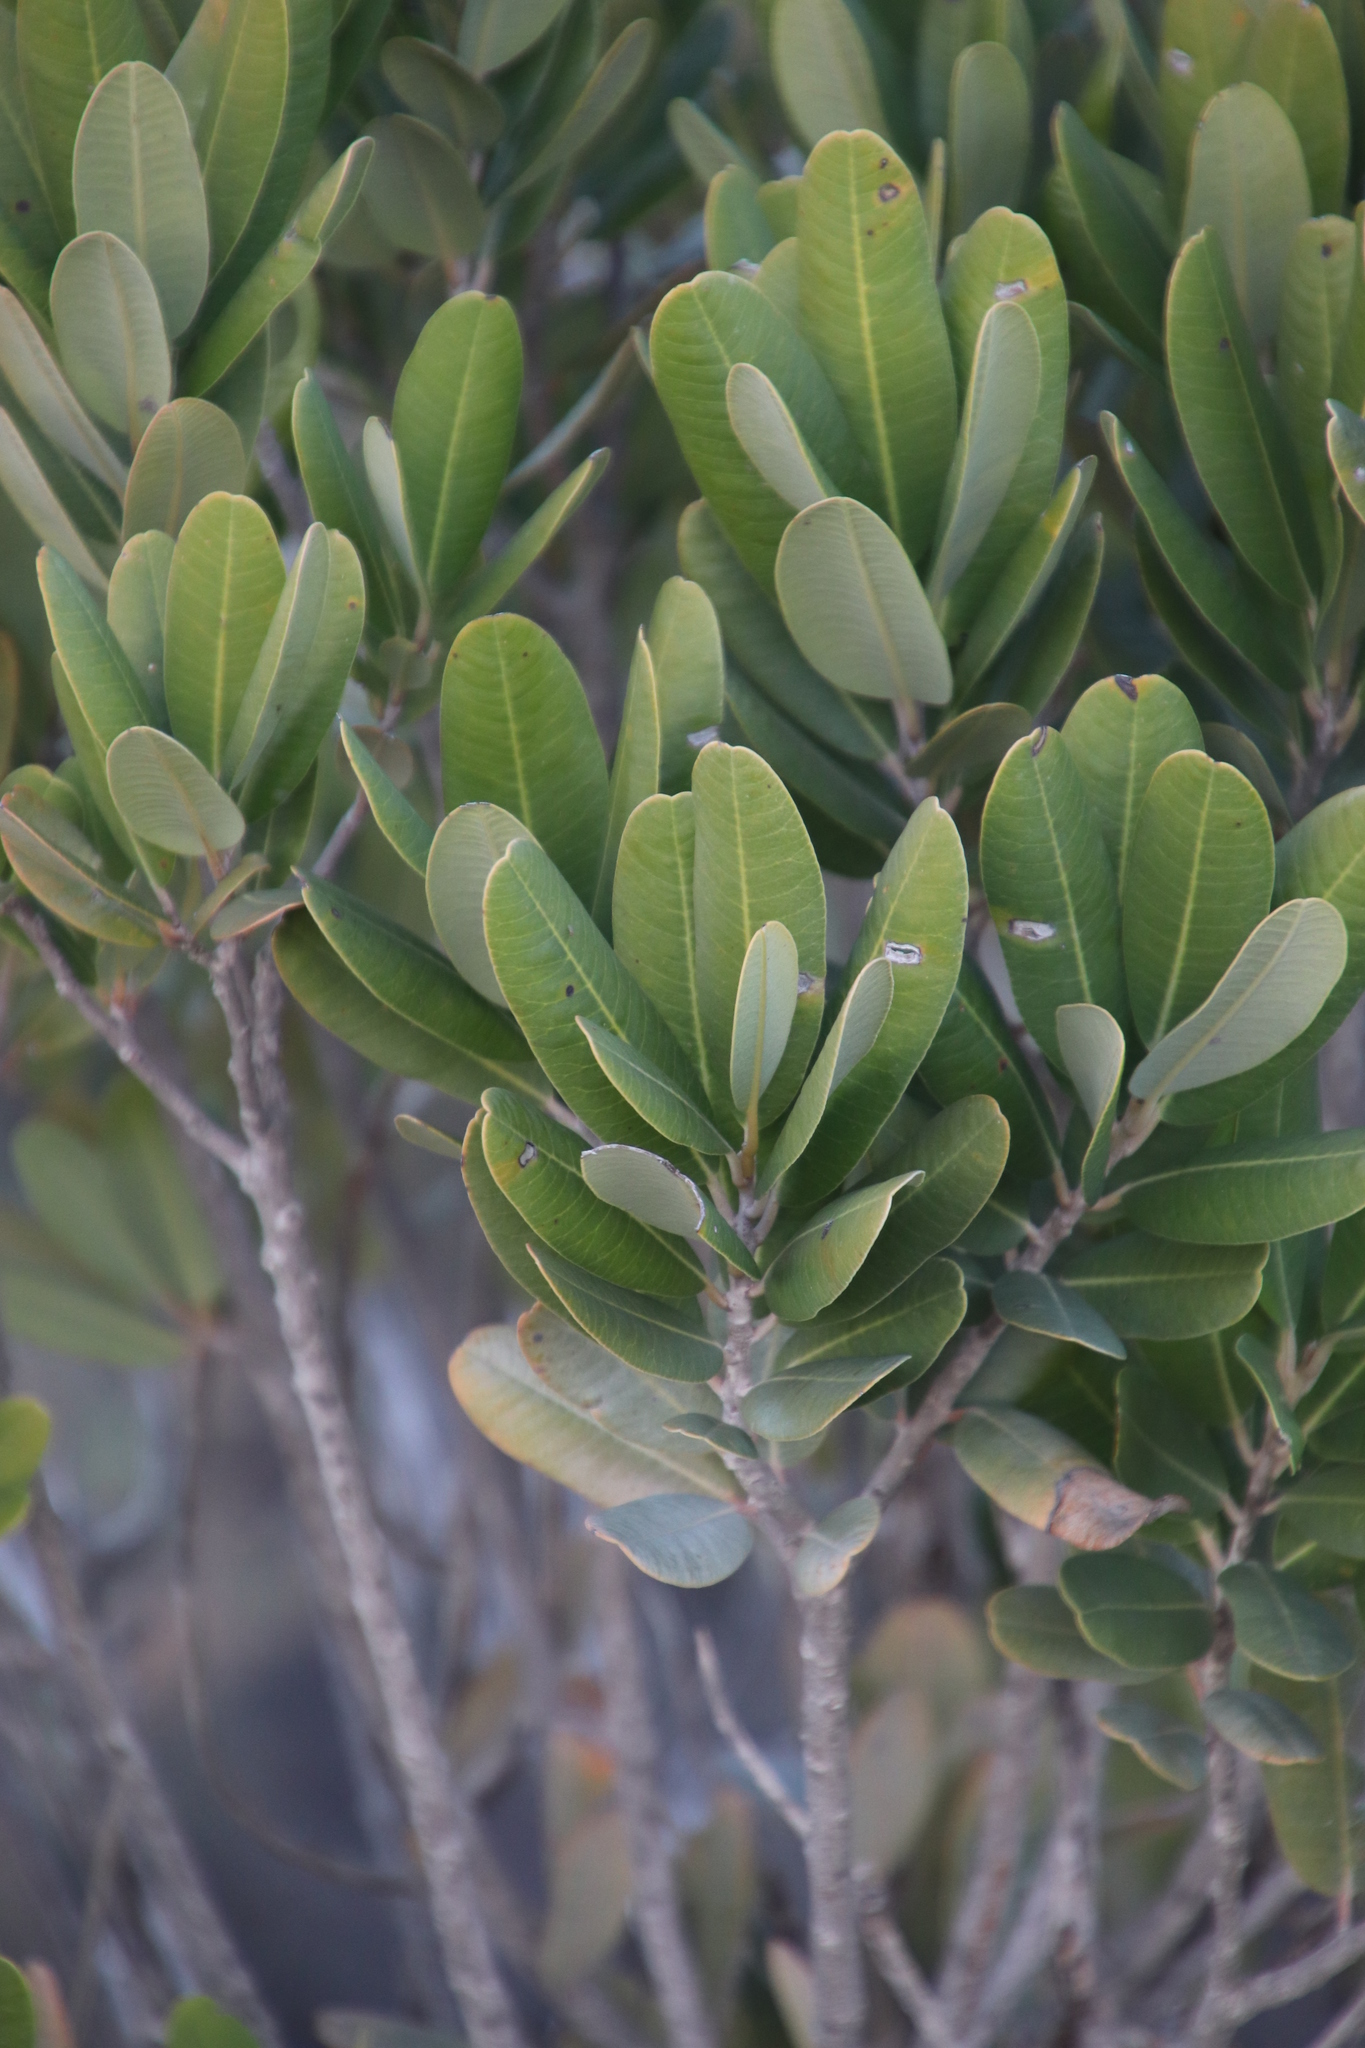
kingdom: Plantae
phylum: Tracheophyta
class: Magnoliopsida
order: Sapindales
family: Anacardiaceae
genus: Heeria
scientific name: Heeria argentea
